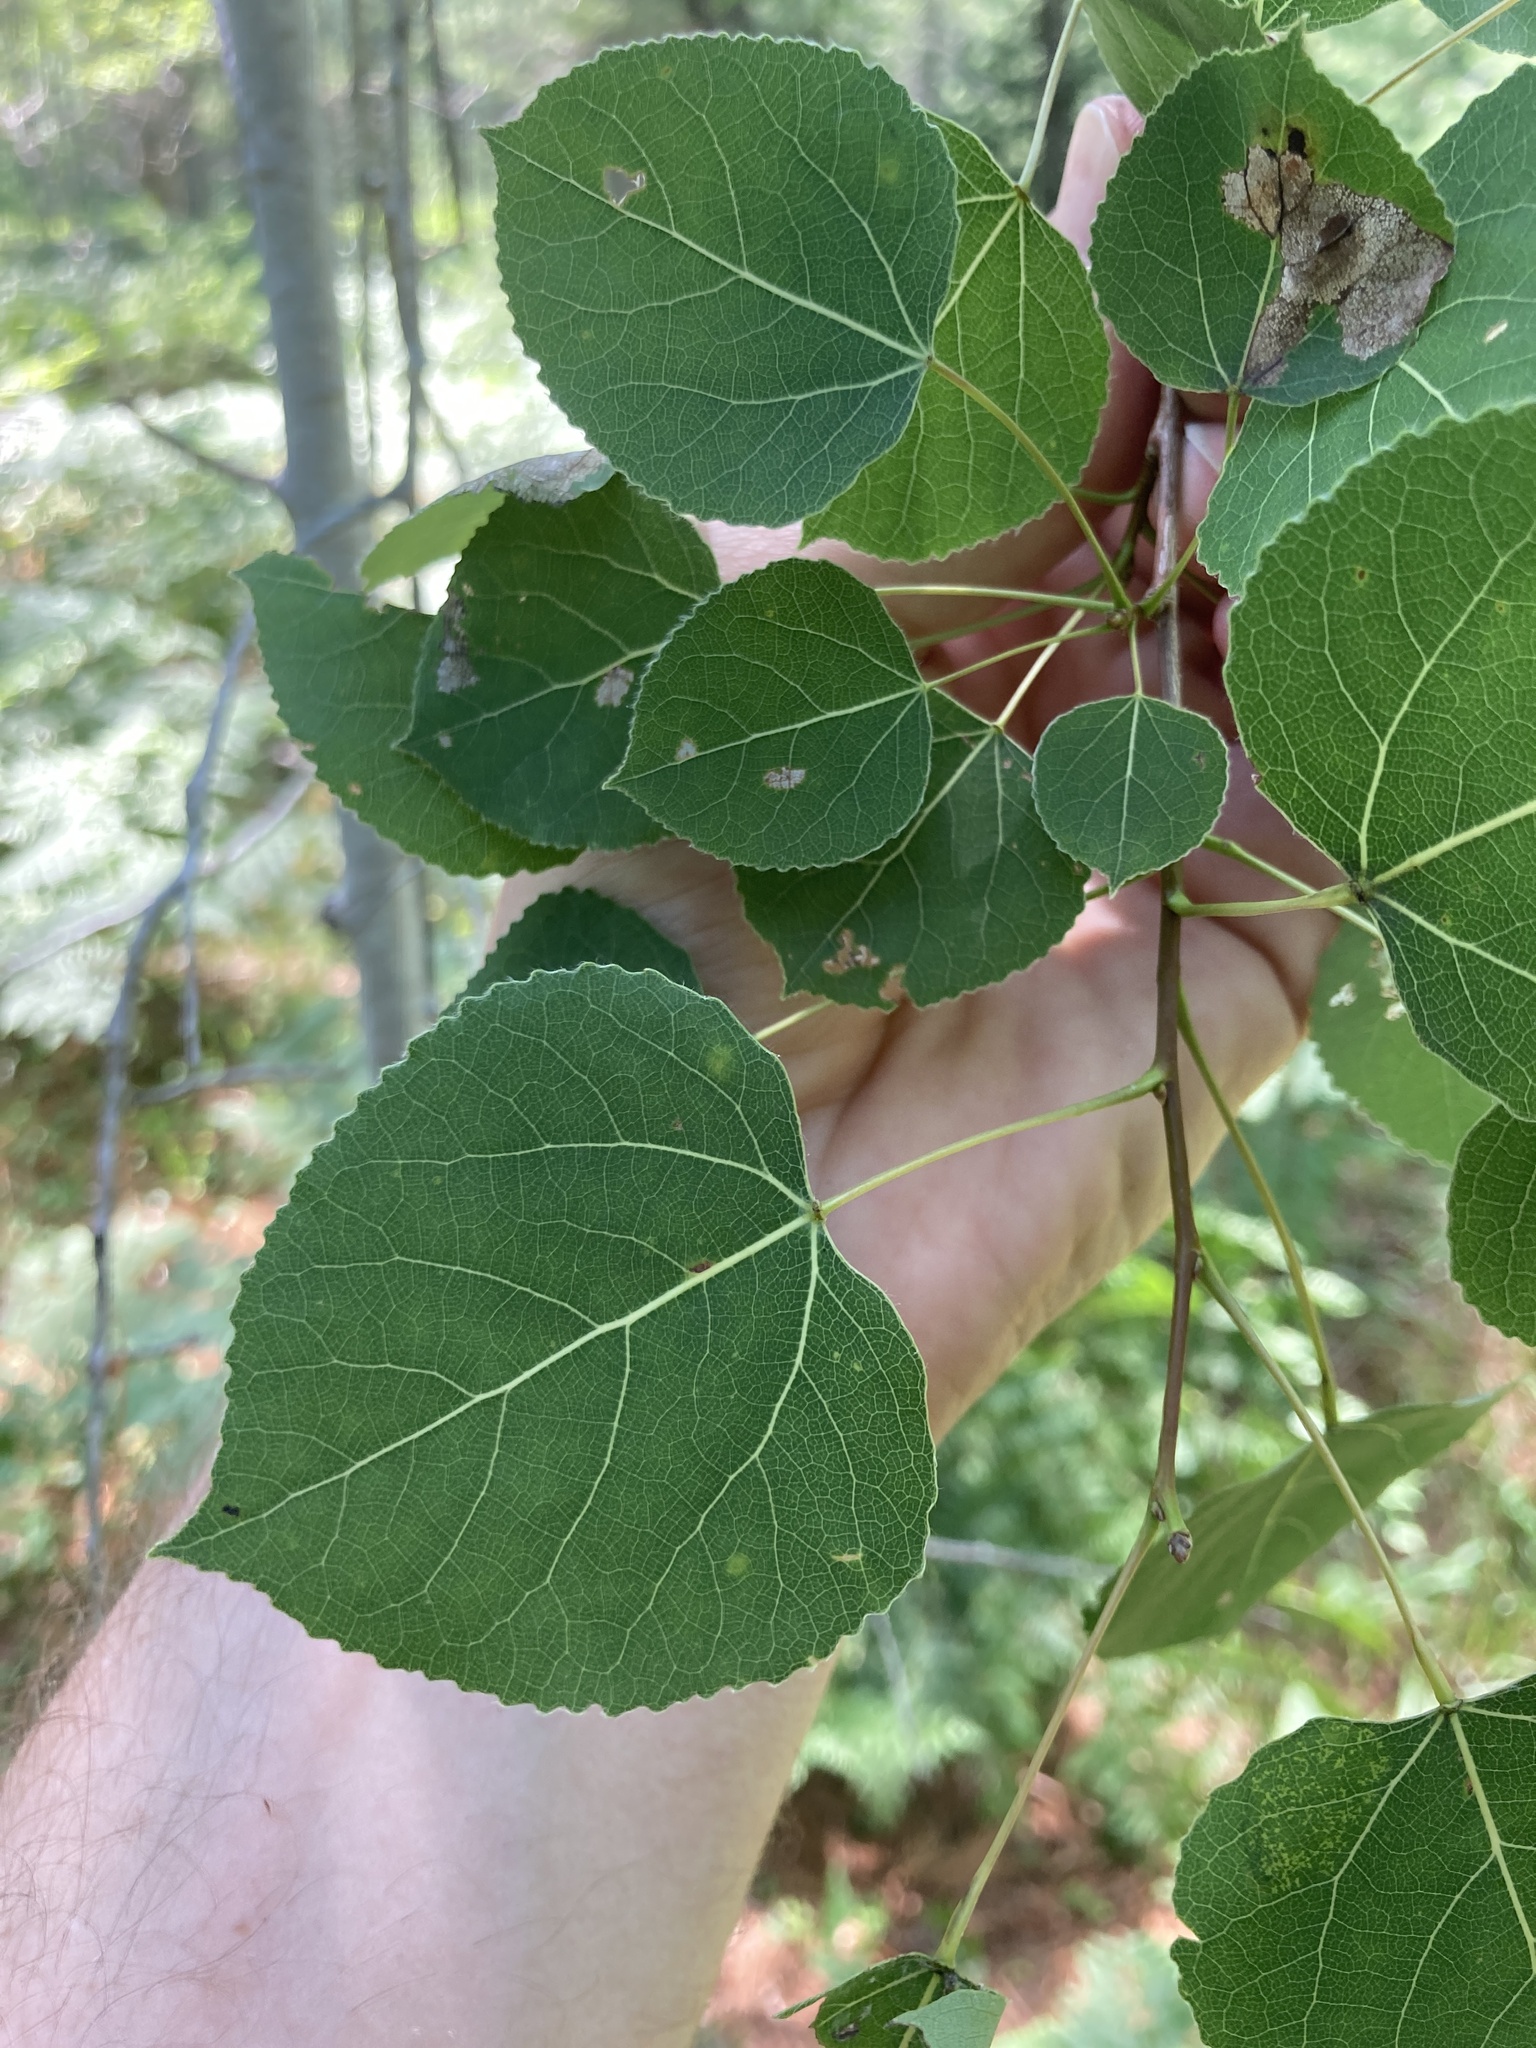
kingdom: Plantae
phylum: Tracheophyta
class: Magnoliopsida
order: Malpighiales
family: Salicaceae
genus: Populus
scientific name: Populus tremuloides
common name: Quaking aspen
